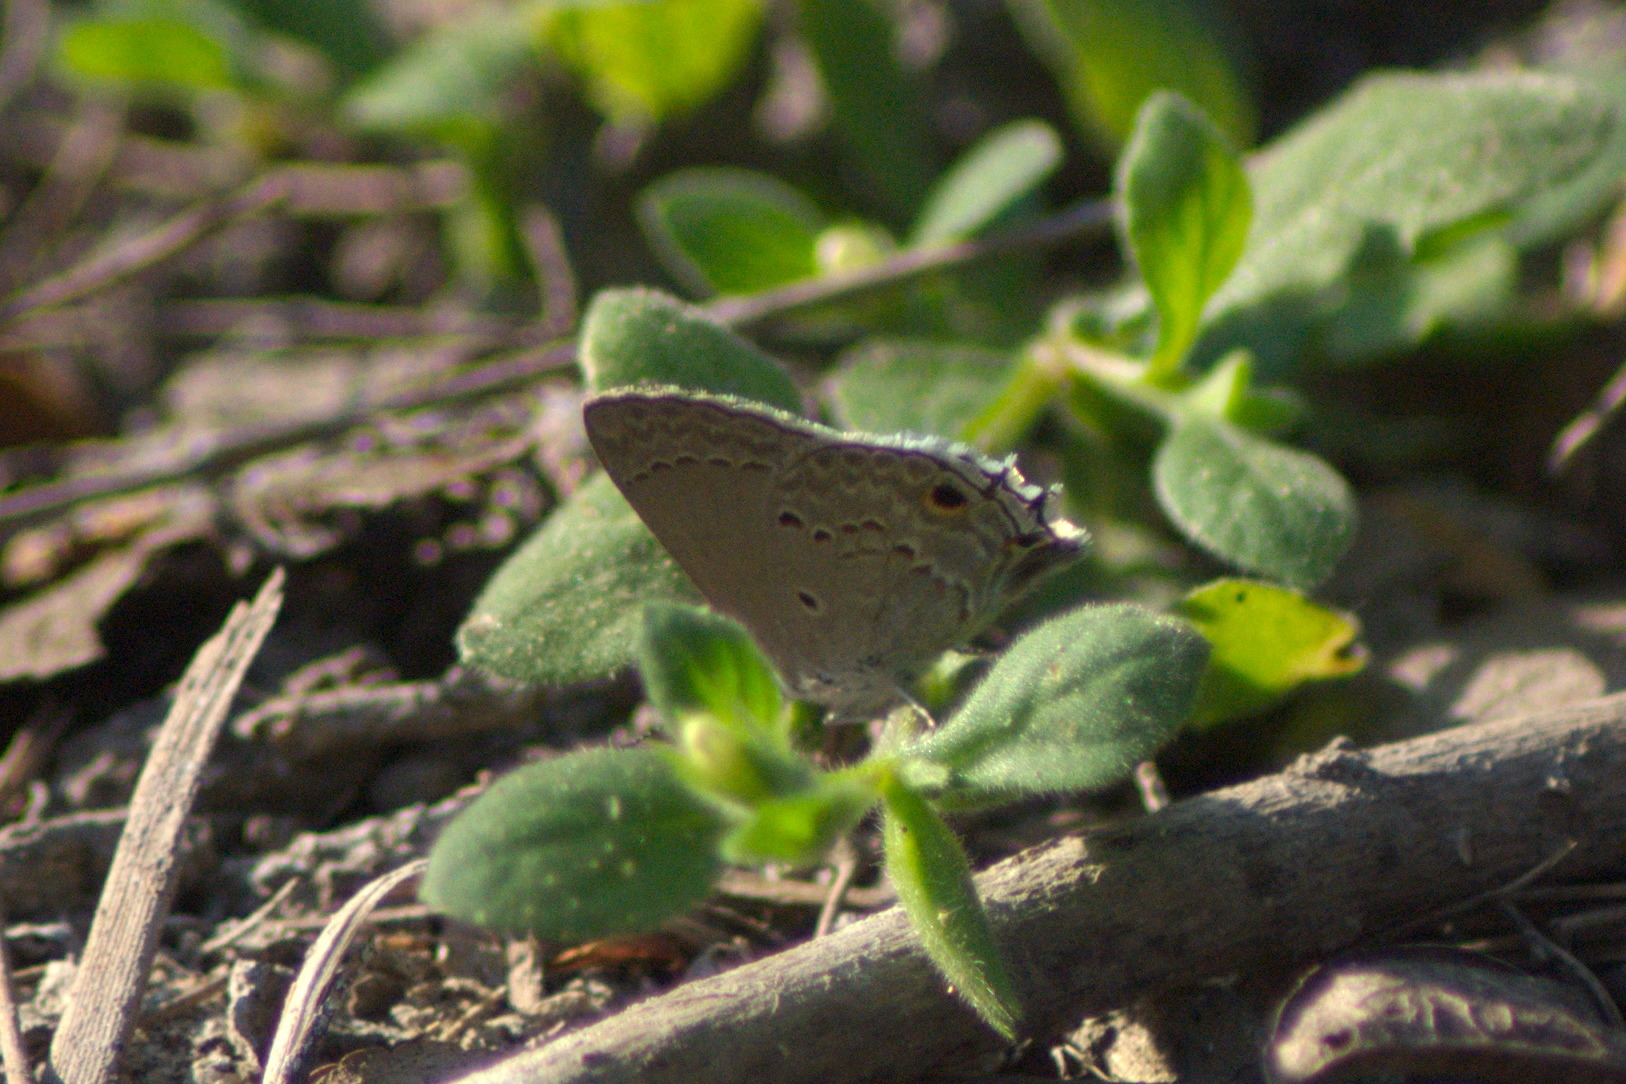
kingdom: Animalia
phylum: Arthropoda
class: Insecta
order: Lepidoptera
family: Lycaenidae
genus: Callicista
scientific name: Callicista columella
